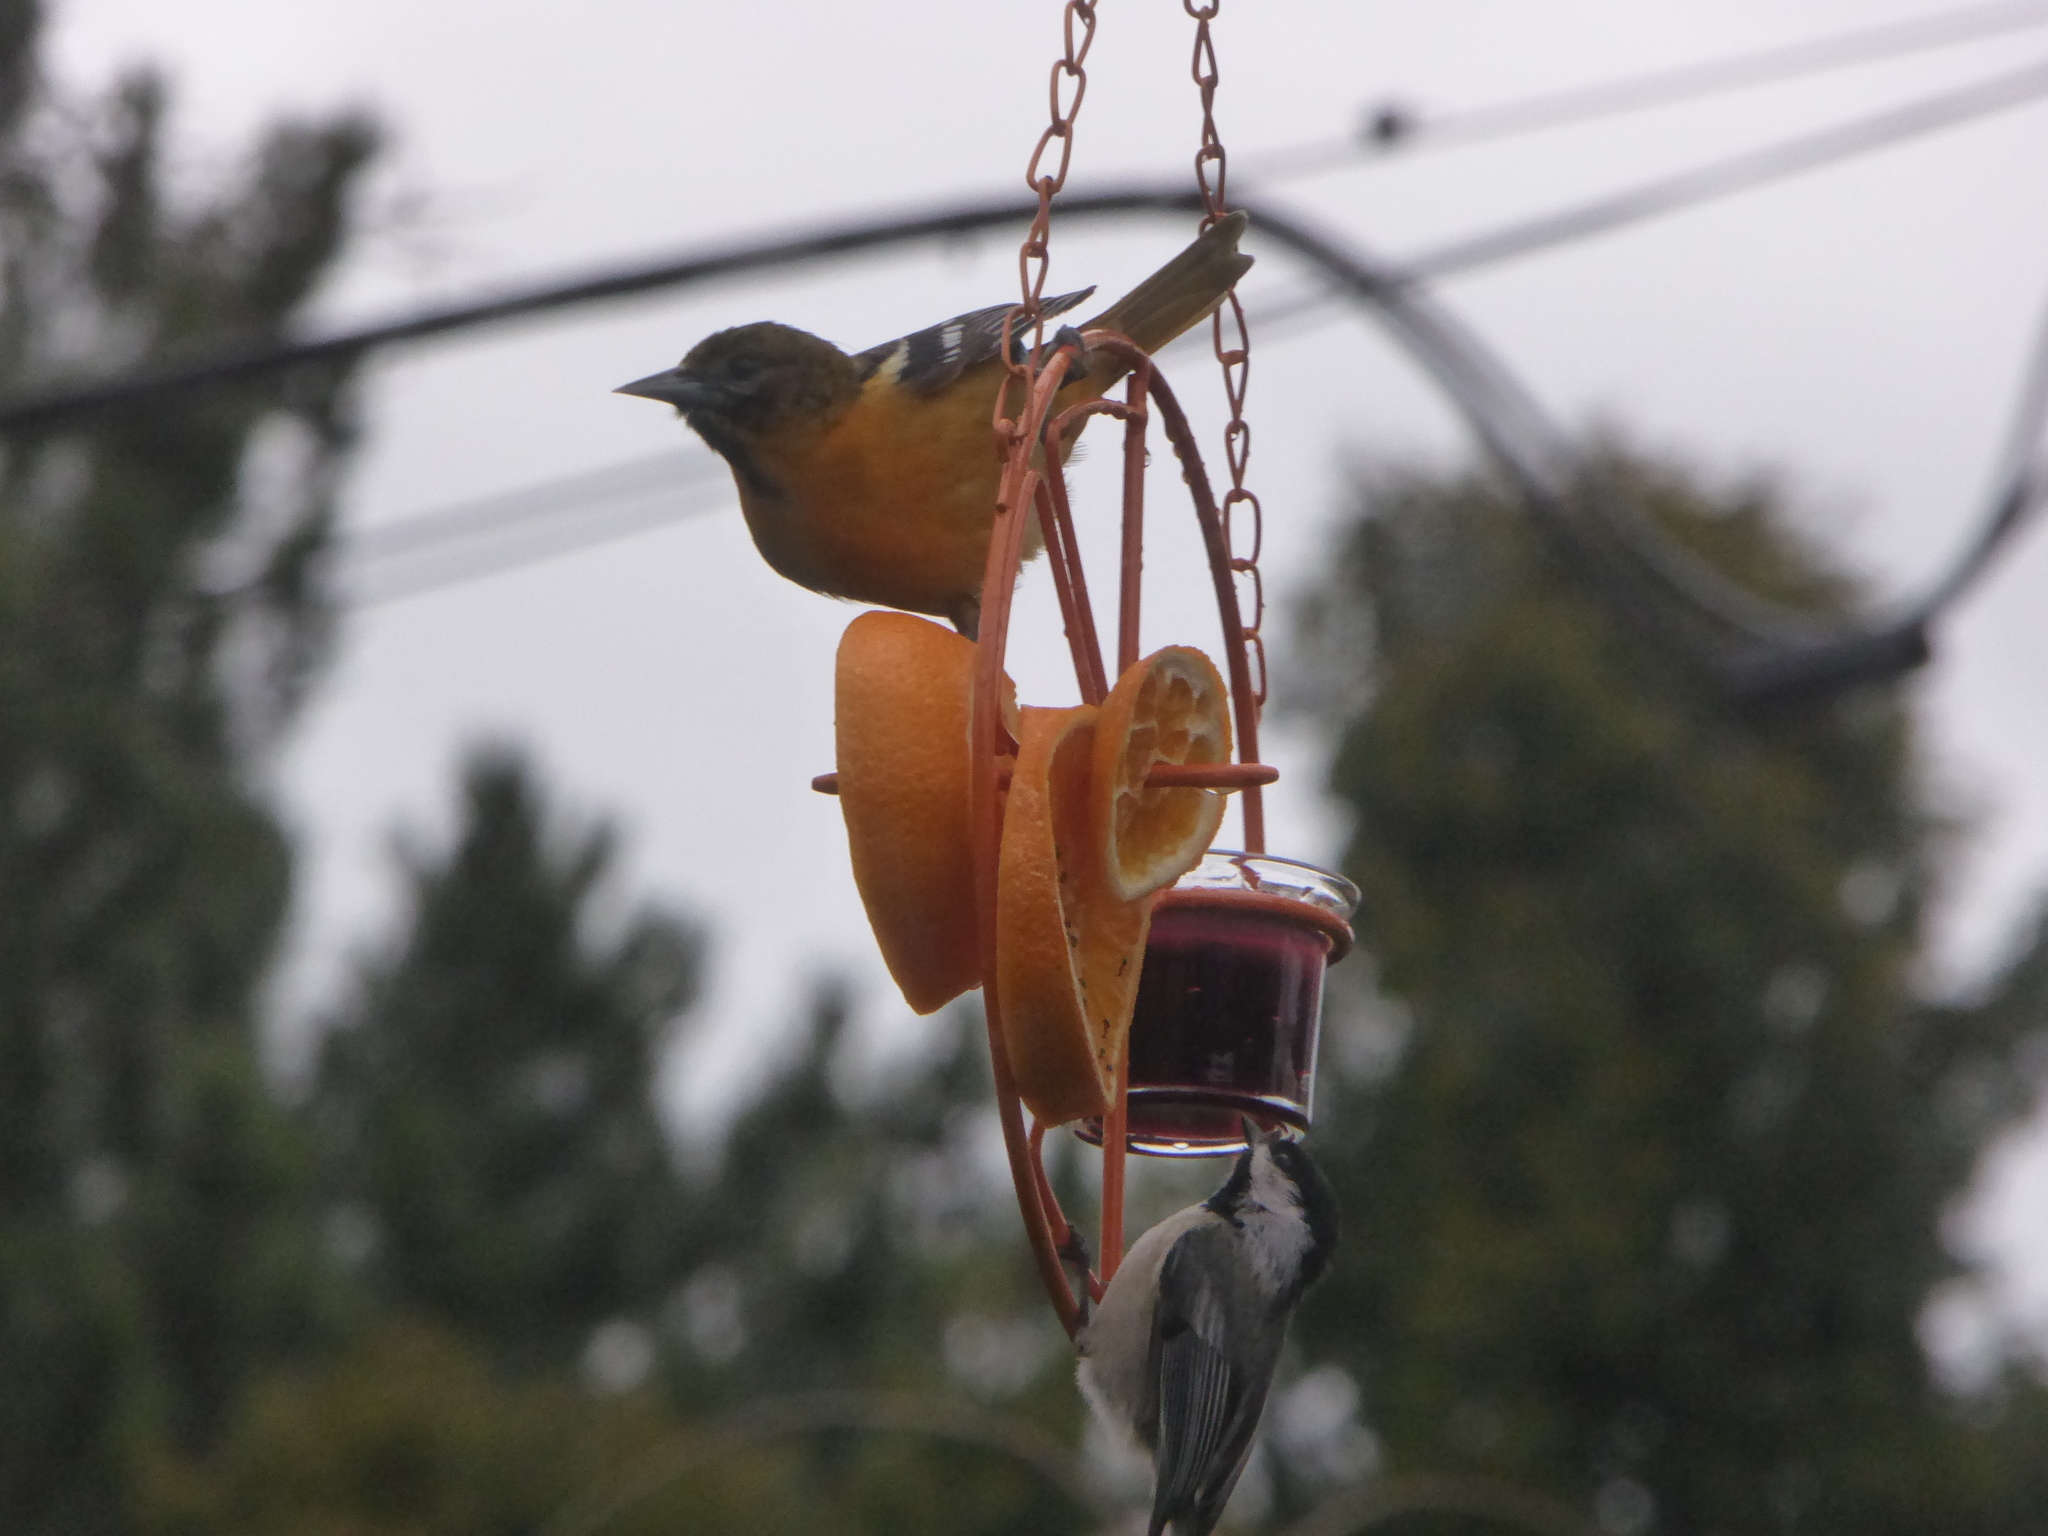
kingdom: Animalia
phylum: Chordata
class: Aves
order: Passeriformes
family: Icteridae
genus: Icterus
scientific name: Icterus galbula
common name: Baltimore oriole
